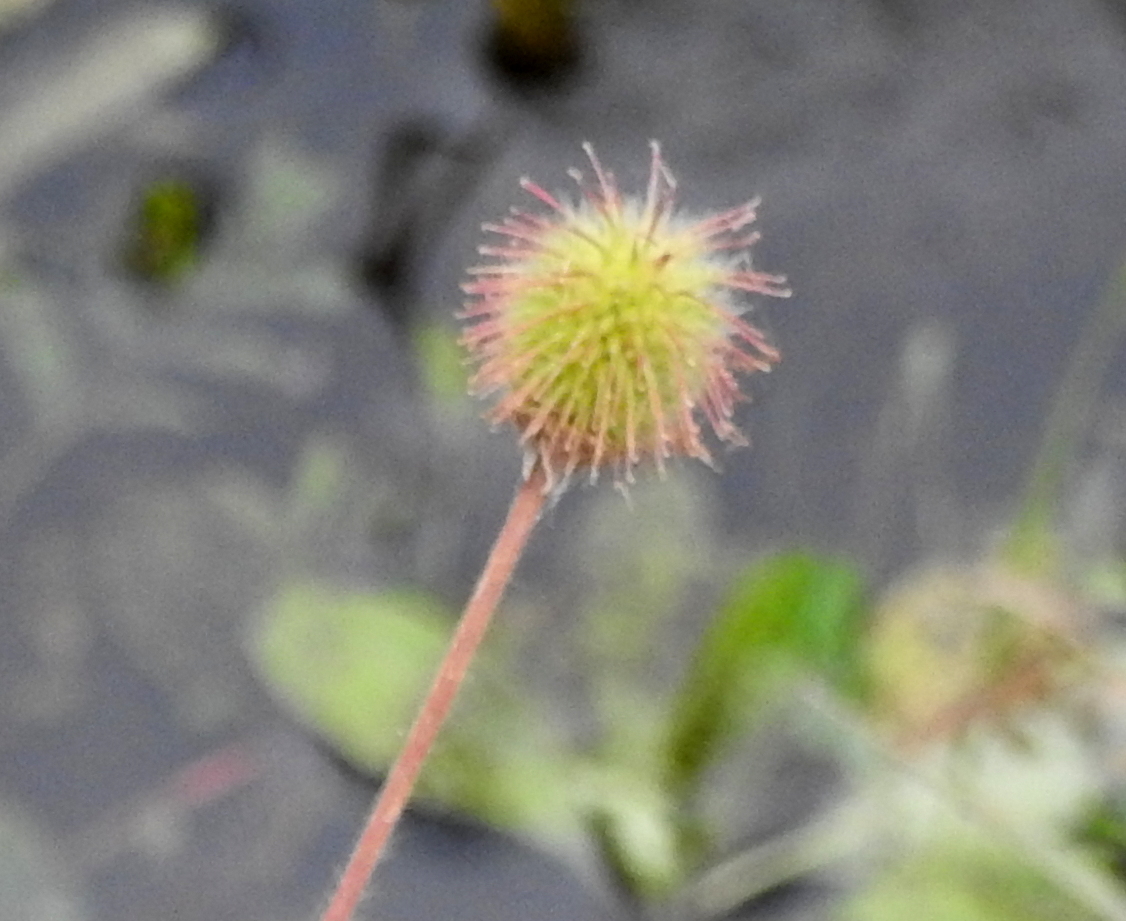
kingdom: Plantae
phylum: Tracheophyta
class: Magnoliopsida
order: Rosales
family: Rosaceae
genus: Geum
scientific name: Geum aleppicum
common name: Yellow avens
